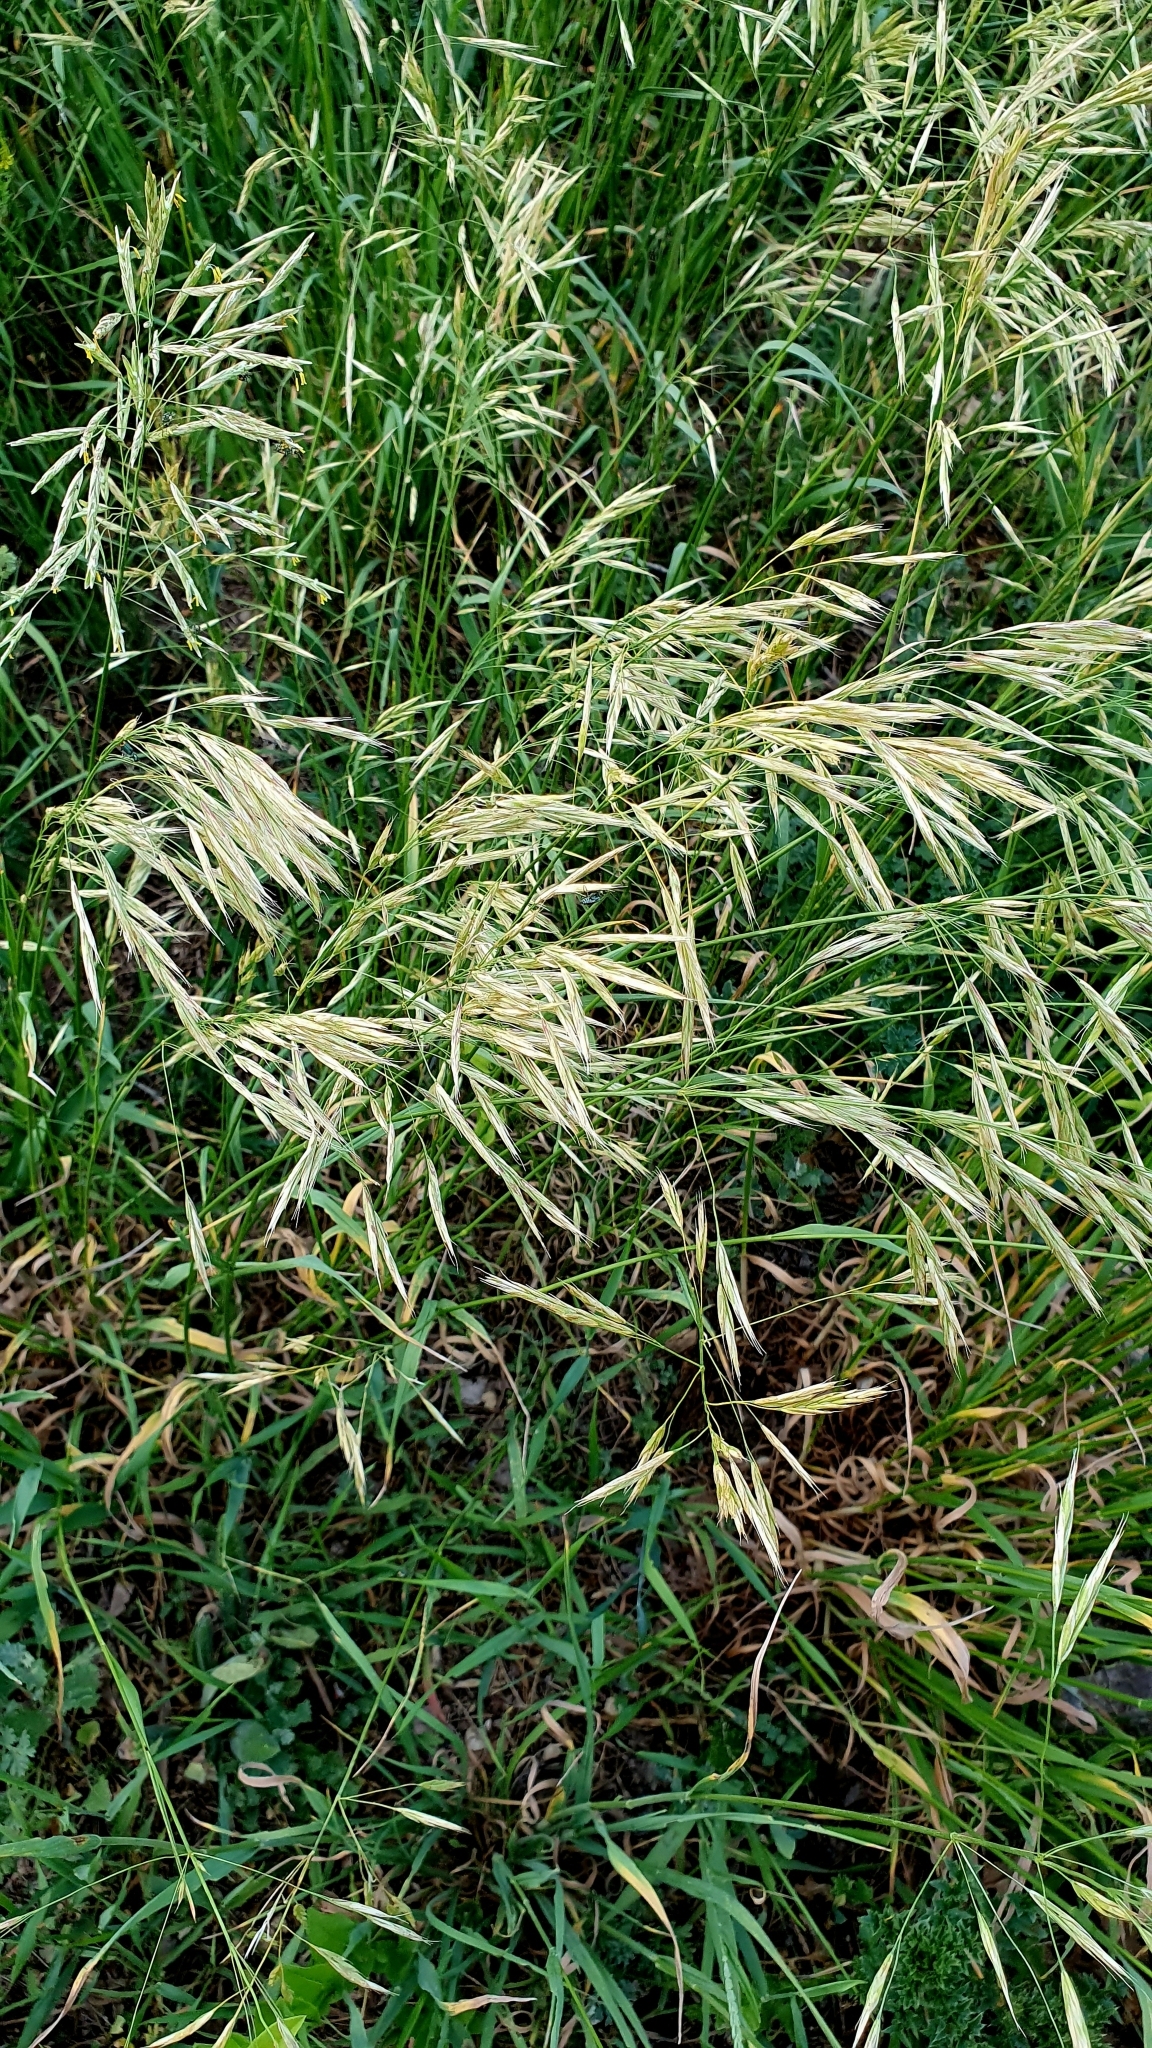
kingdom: Plantae
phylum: Tracheophyta
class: Liliopsida
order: Poales
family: Poaceae
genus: Bromus
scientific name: Bromus inermis
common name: Smooth brome
